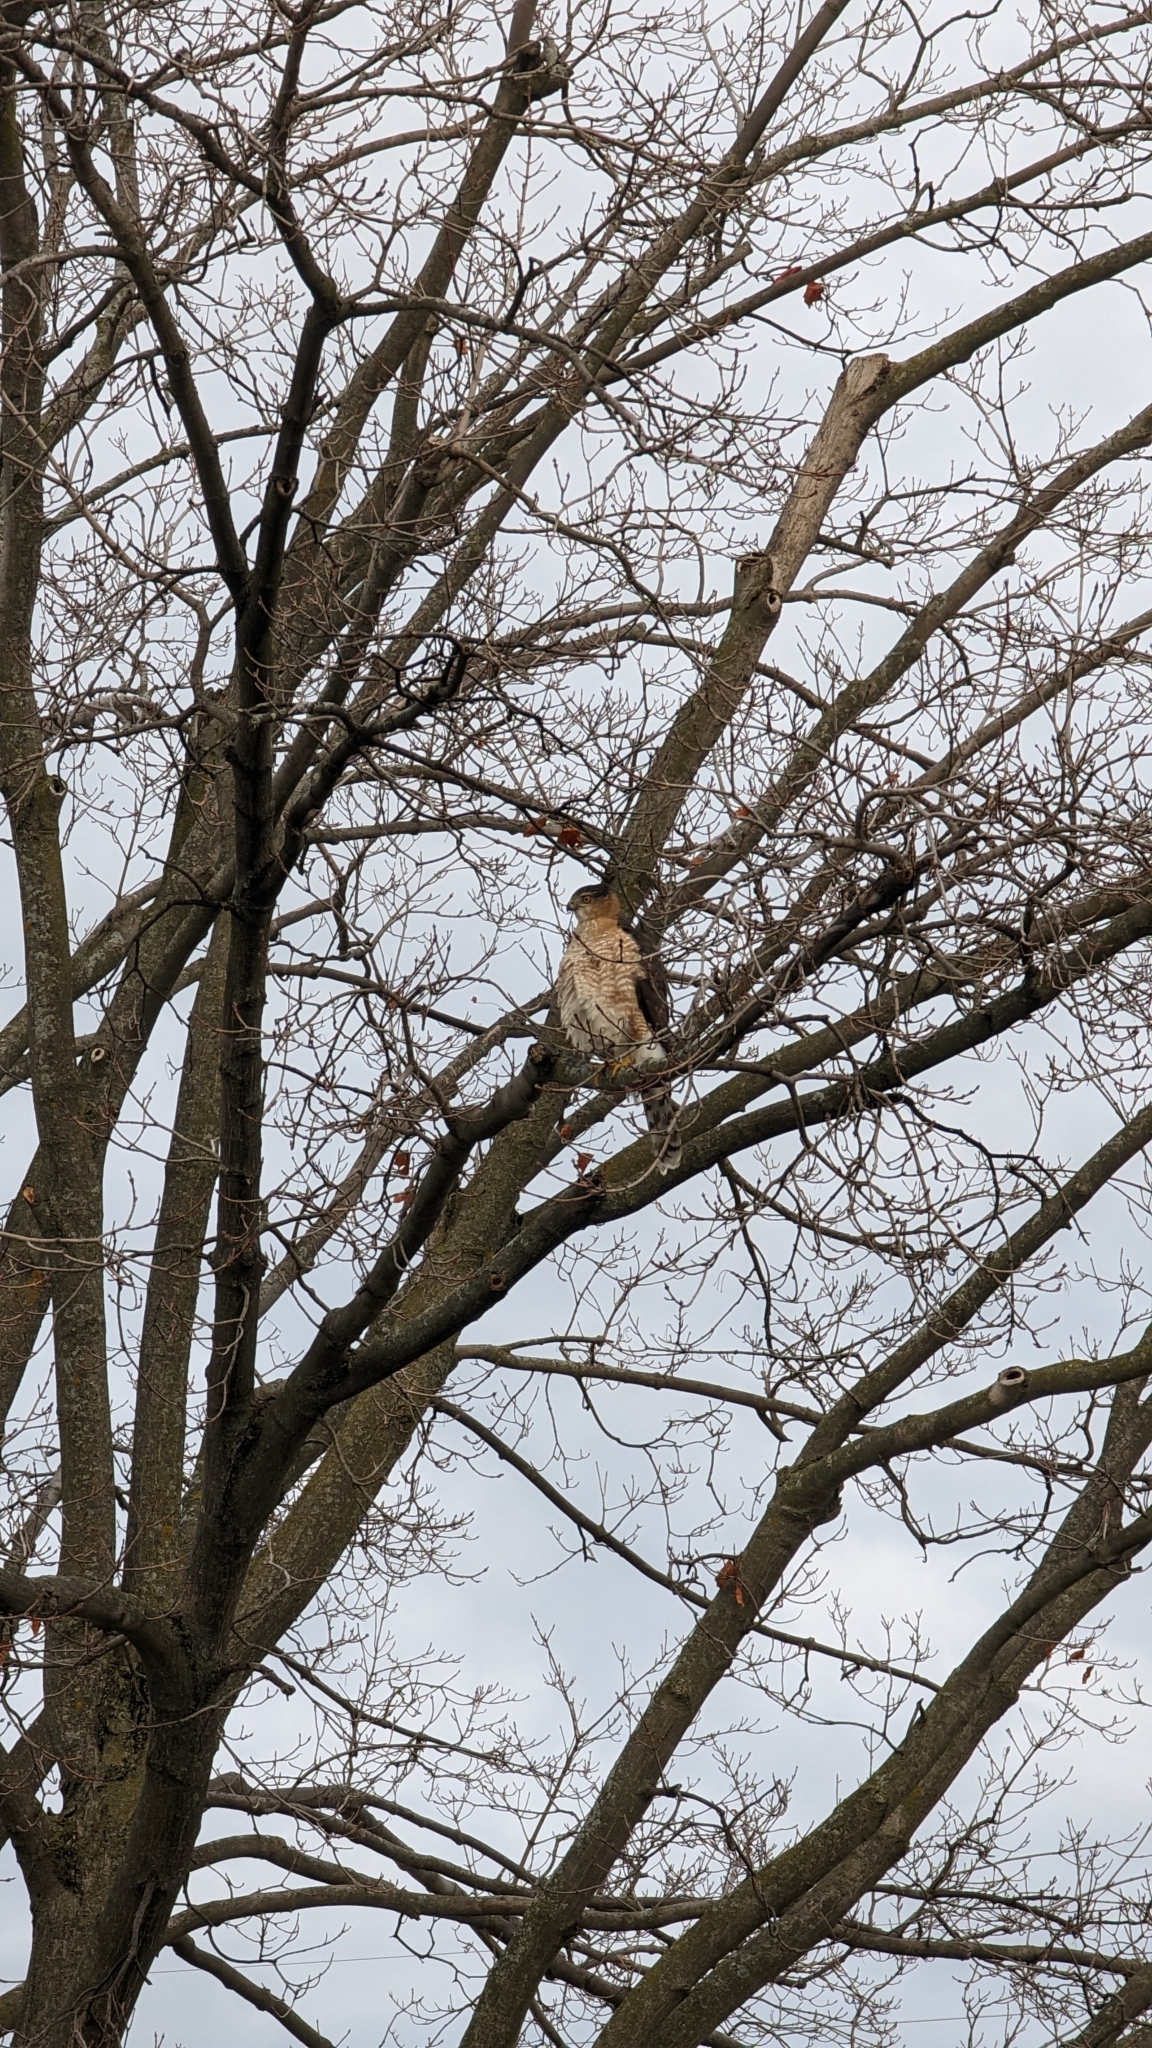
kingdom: Animalia
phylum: Chordata
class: Aves
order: Accipitriformes
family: Accipitridae
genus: Accipiter
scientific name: Accipiter cooperii
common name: Cooper's hawk
